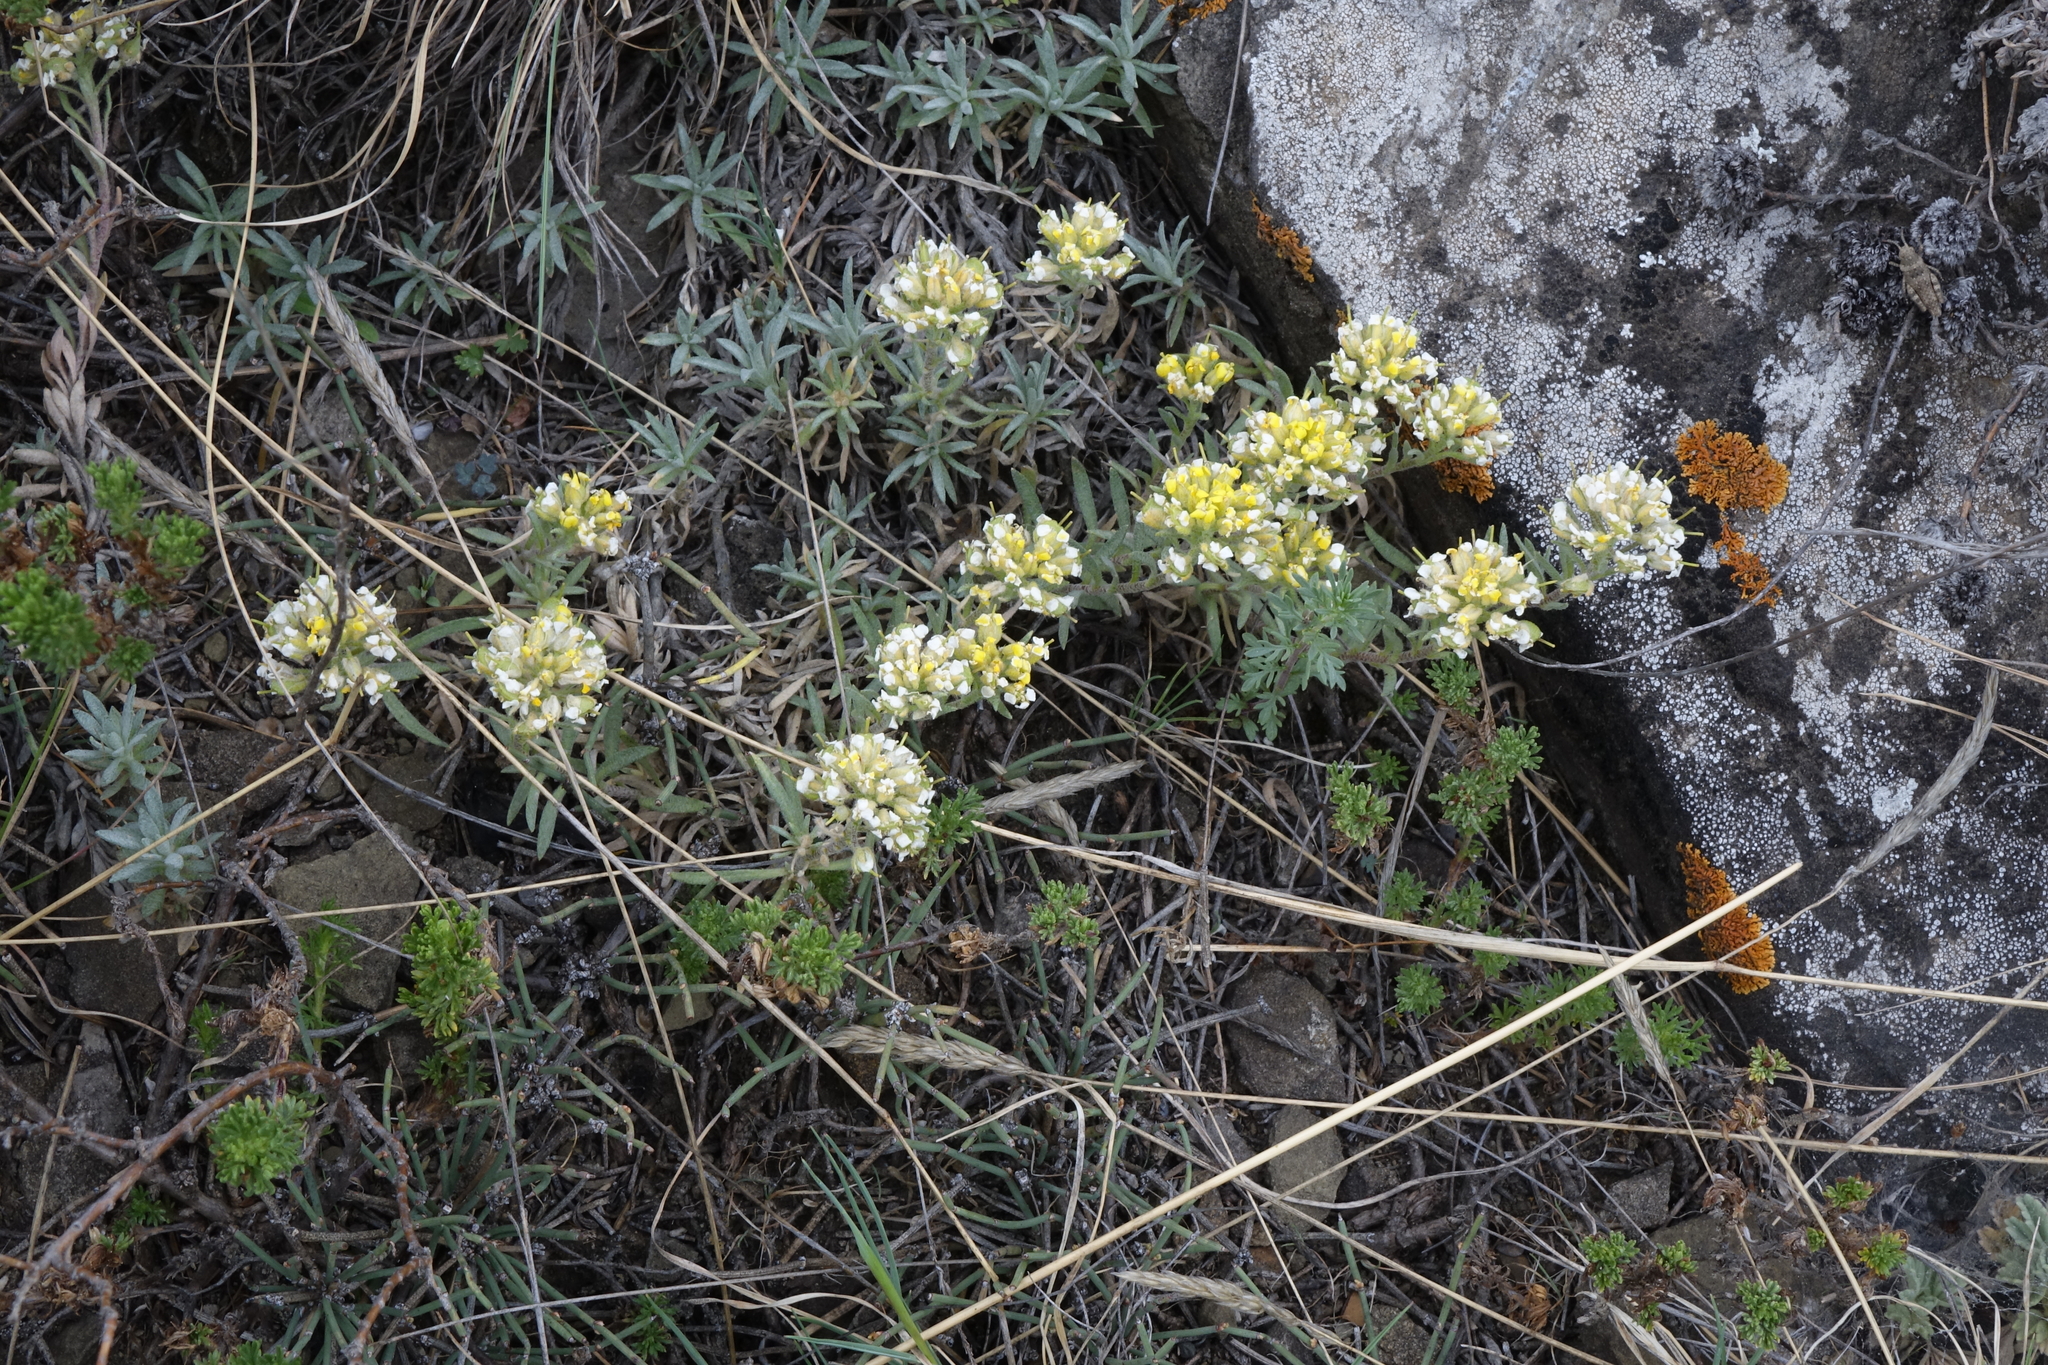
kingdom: Plantae
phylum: Tracheophyta
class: Magnoliopsida
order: Brassicales
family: Brassicaceae
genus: Alyssum
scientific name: Alyssum lenense
